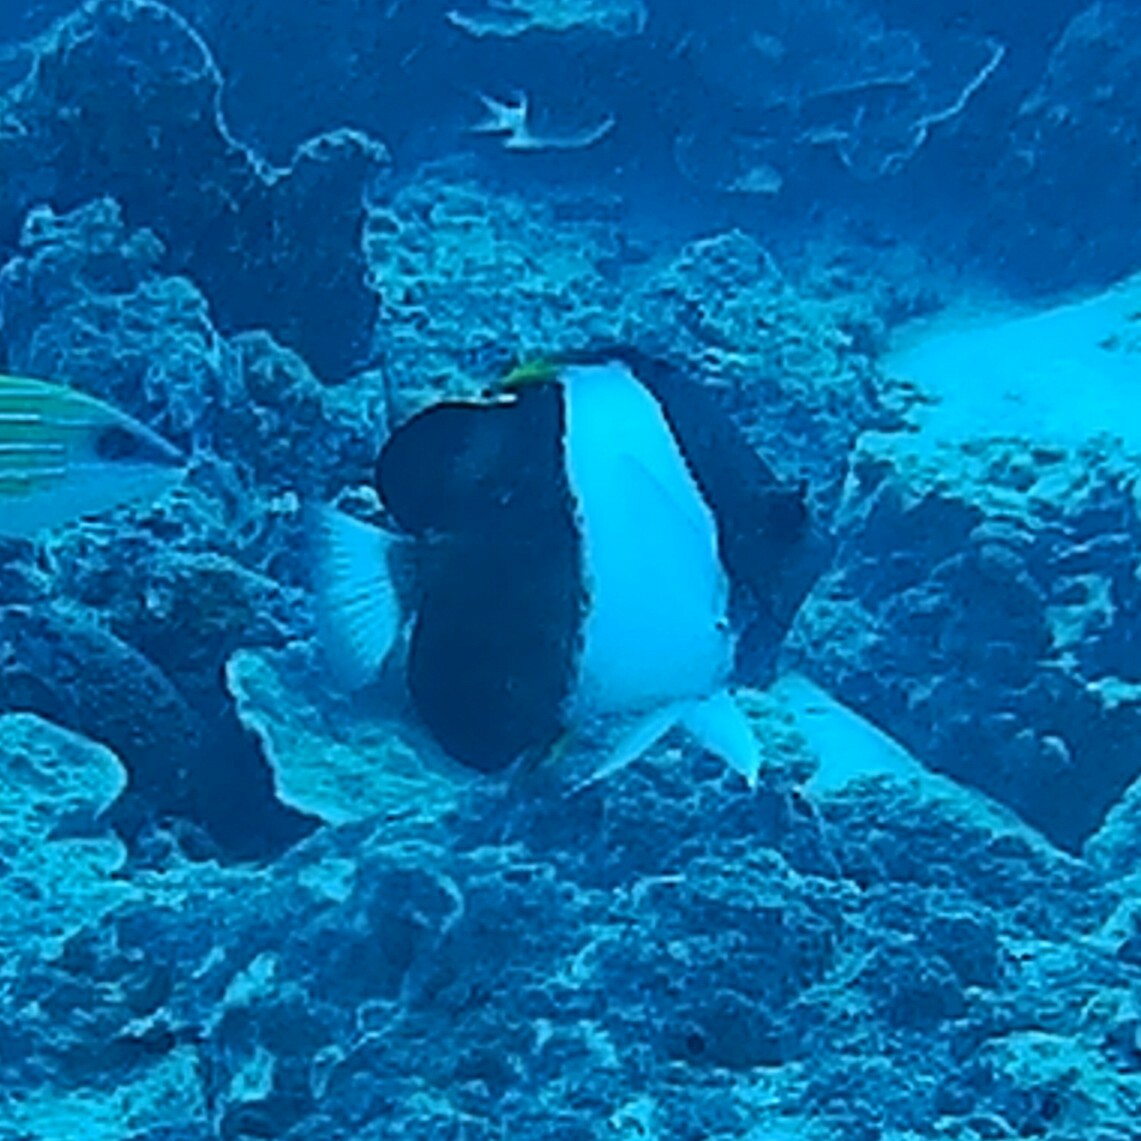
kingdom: Animalia
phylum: Chordata
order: Perciformes
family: Chaetodontidae
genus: Hemitaurichthys
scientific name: Hemitaurichthys zoster
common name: Brown-and-white butterflyfish
